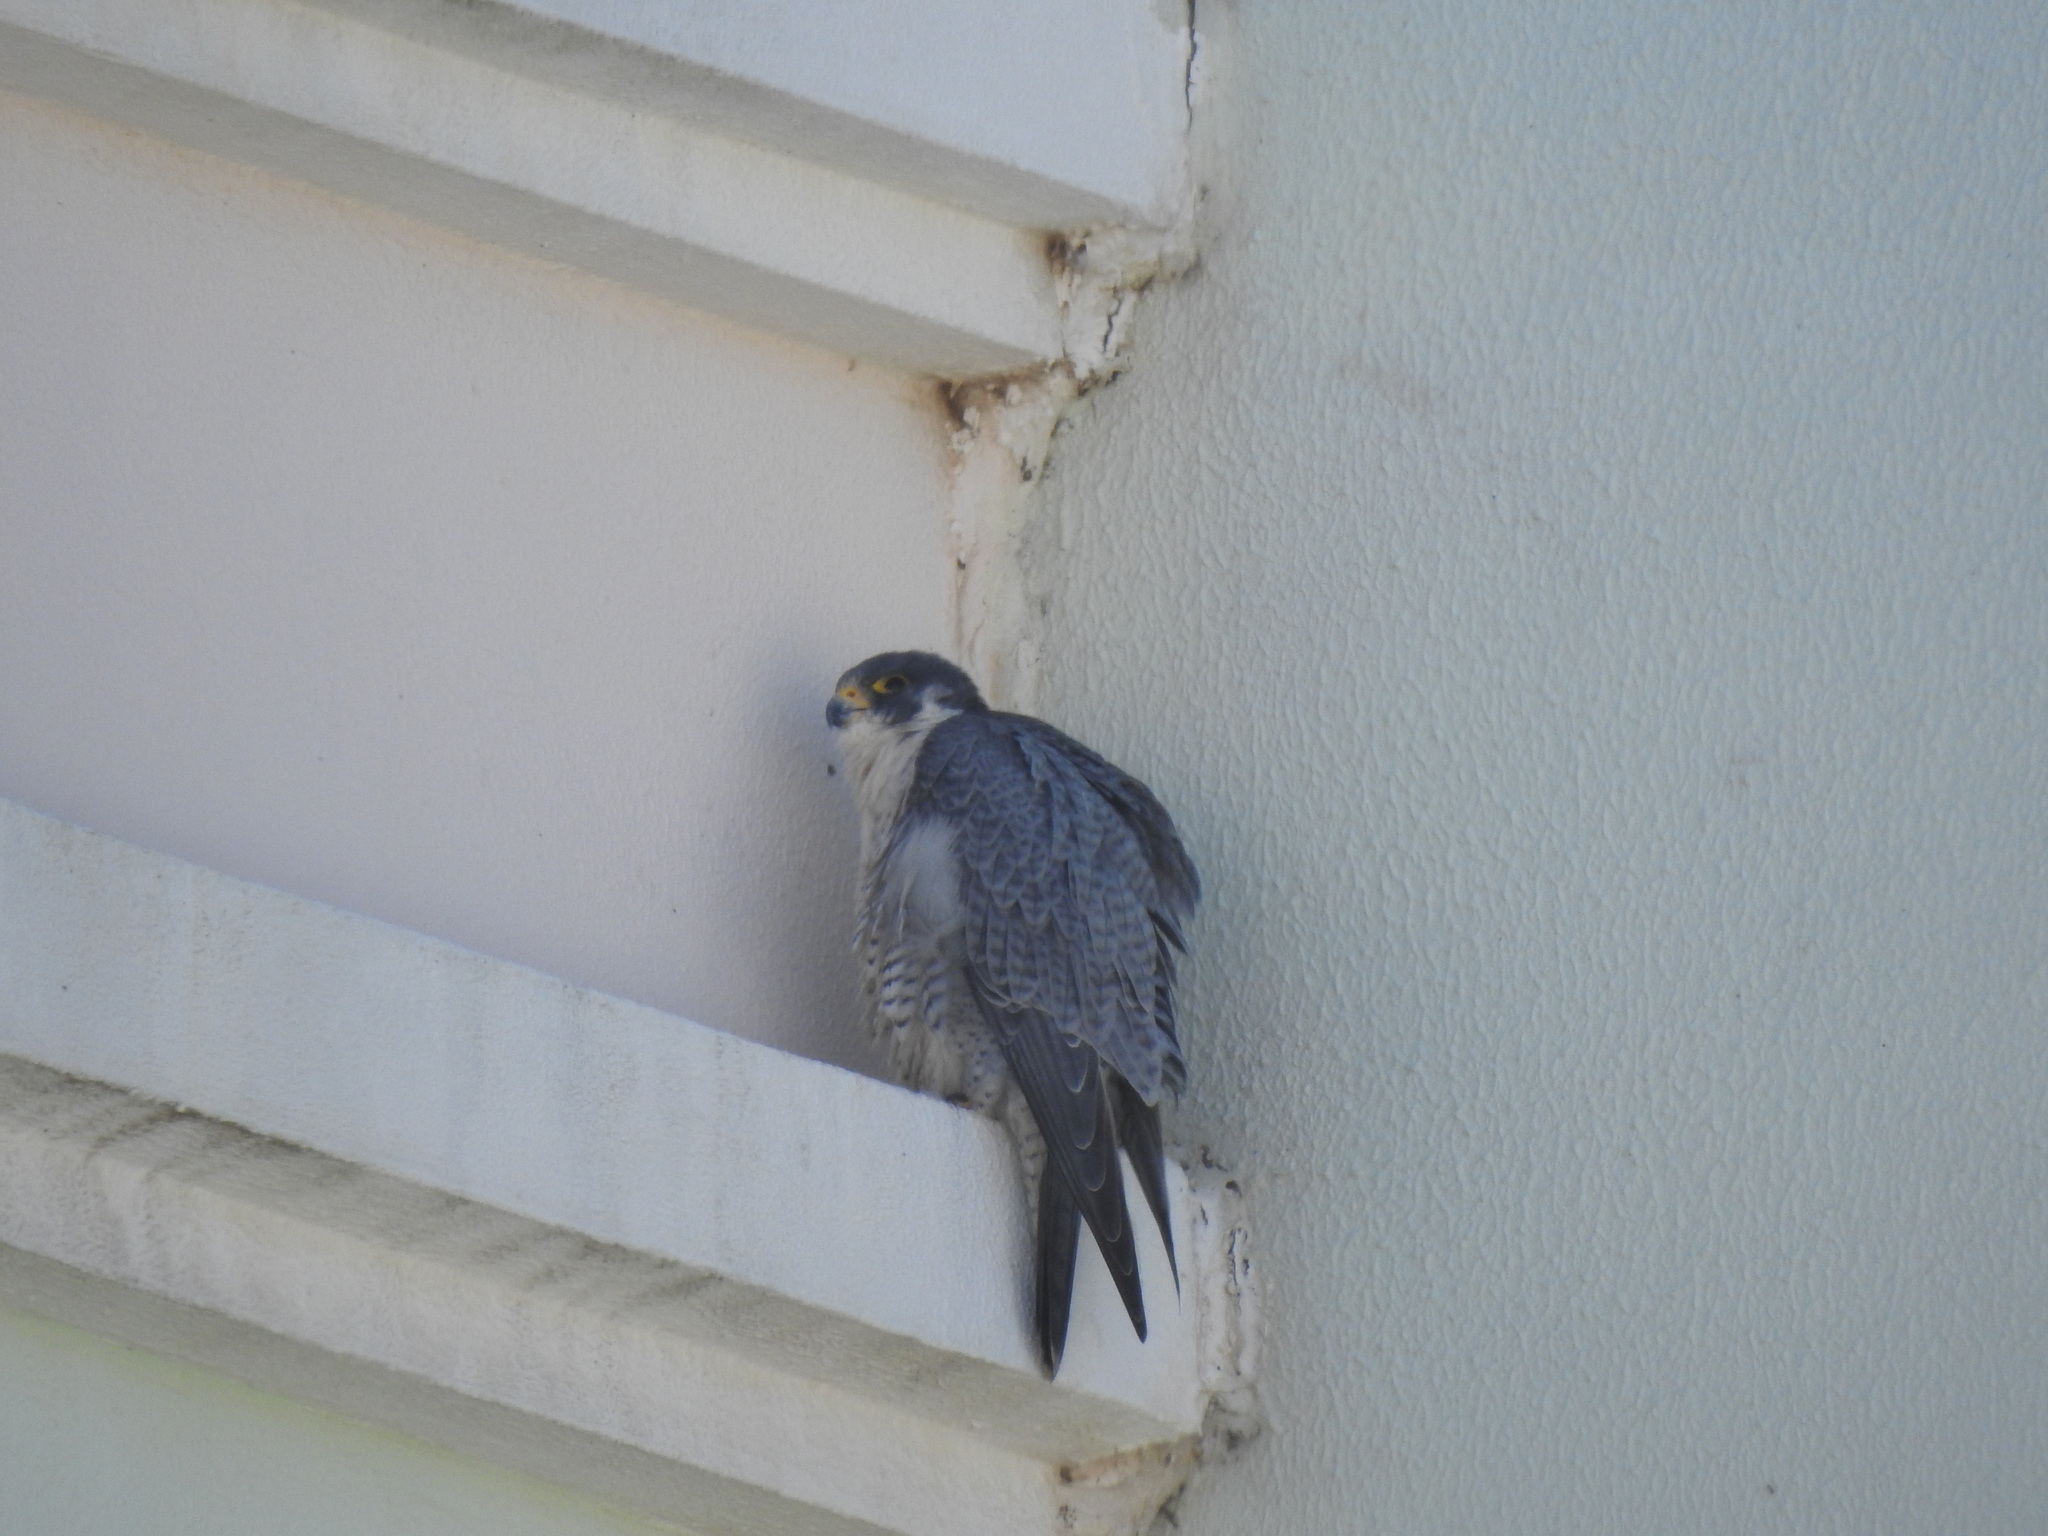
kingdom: Animalia
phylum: Chordata
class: Aves
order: Falconiformes
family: Falconidae
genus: Falco
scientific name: Falco peregrinus
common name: Peregrine falcon
